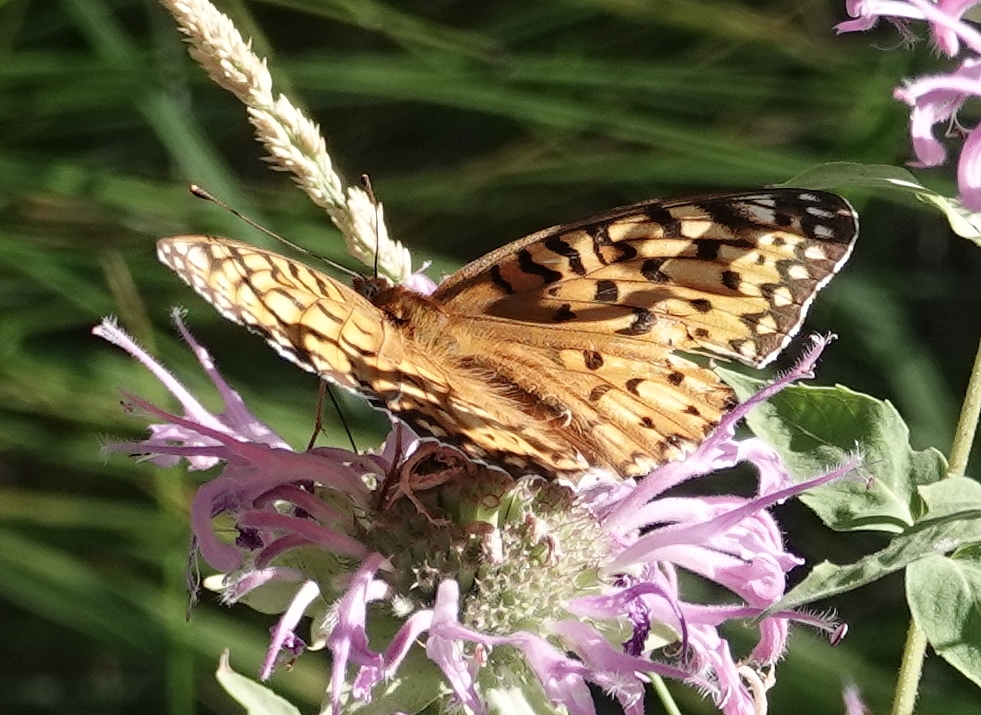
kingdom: Animalia
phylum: Arthropoda
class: Insecta
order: Lepidoptera
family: Nymphalidae
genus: Speyeria
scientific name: Speyeria edwardsii
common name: Edwards' fritillary
